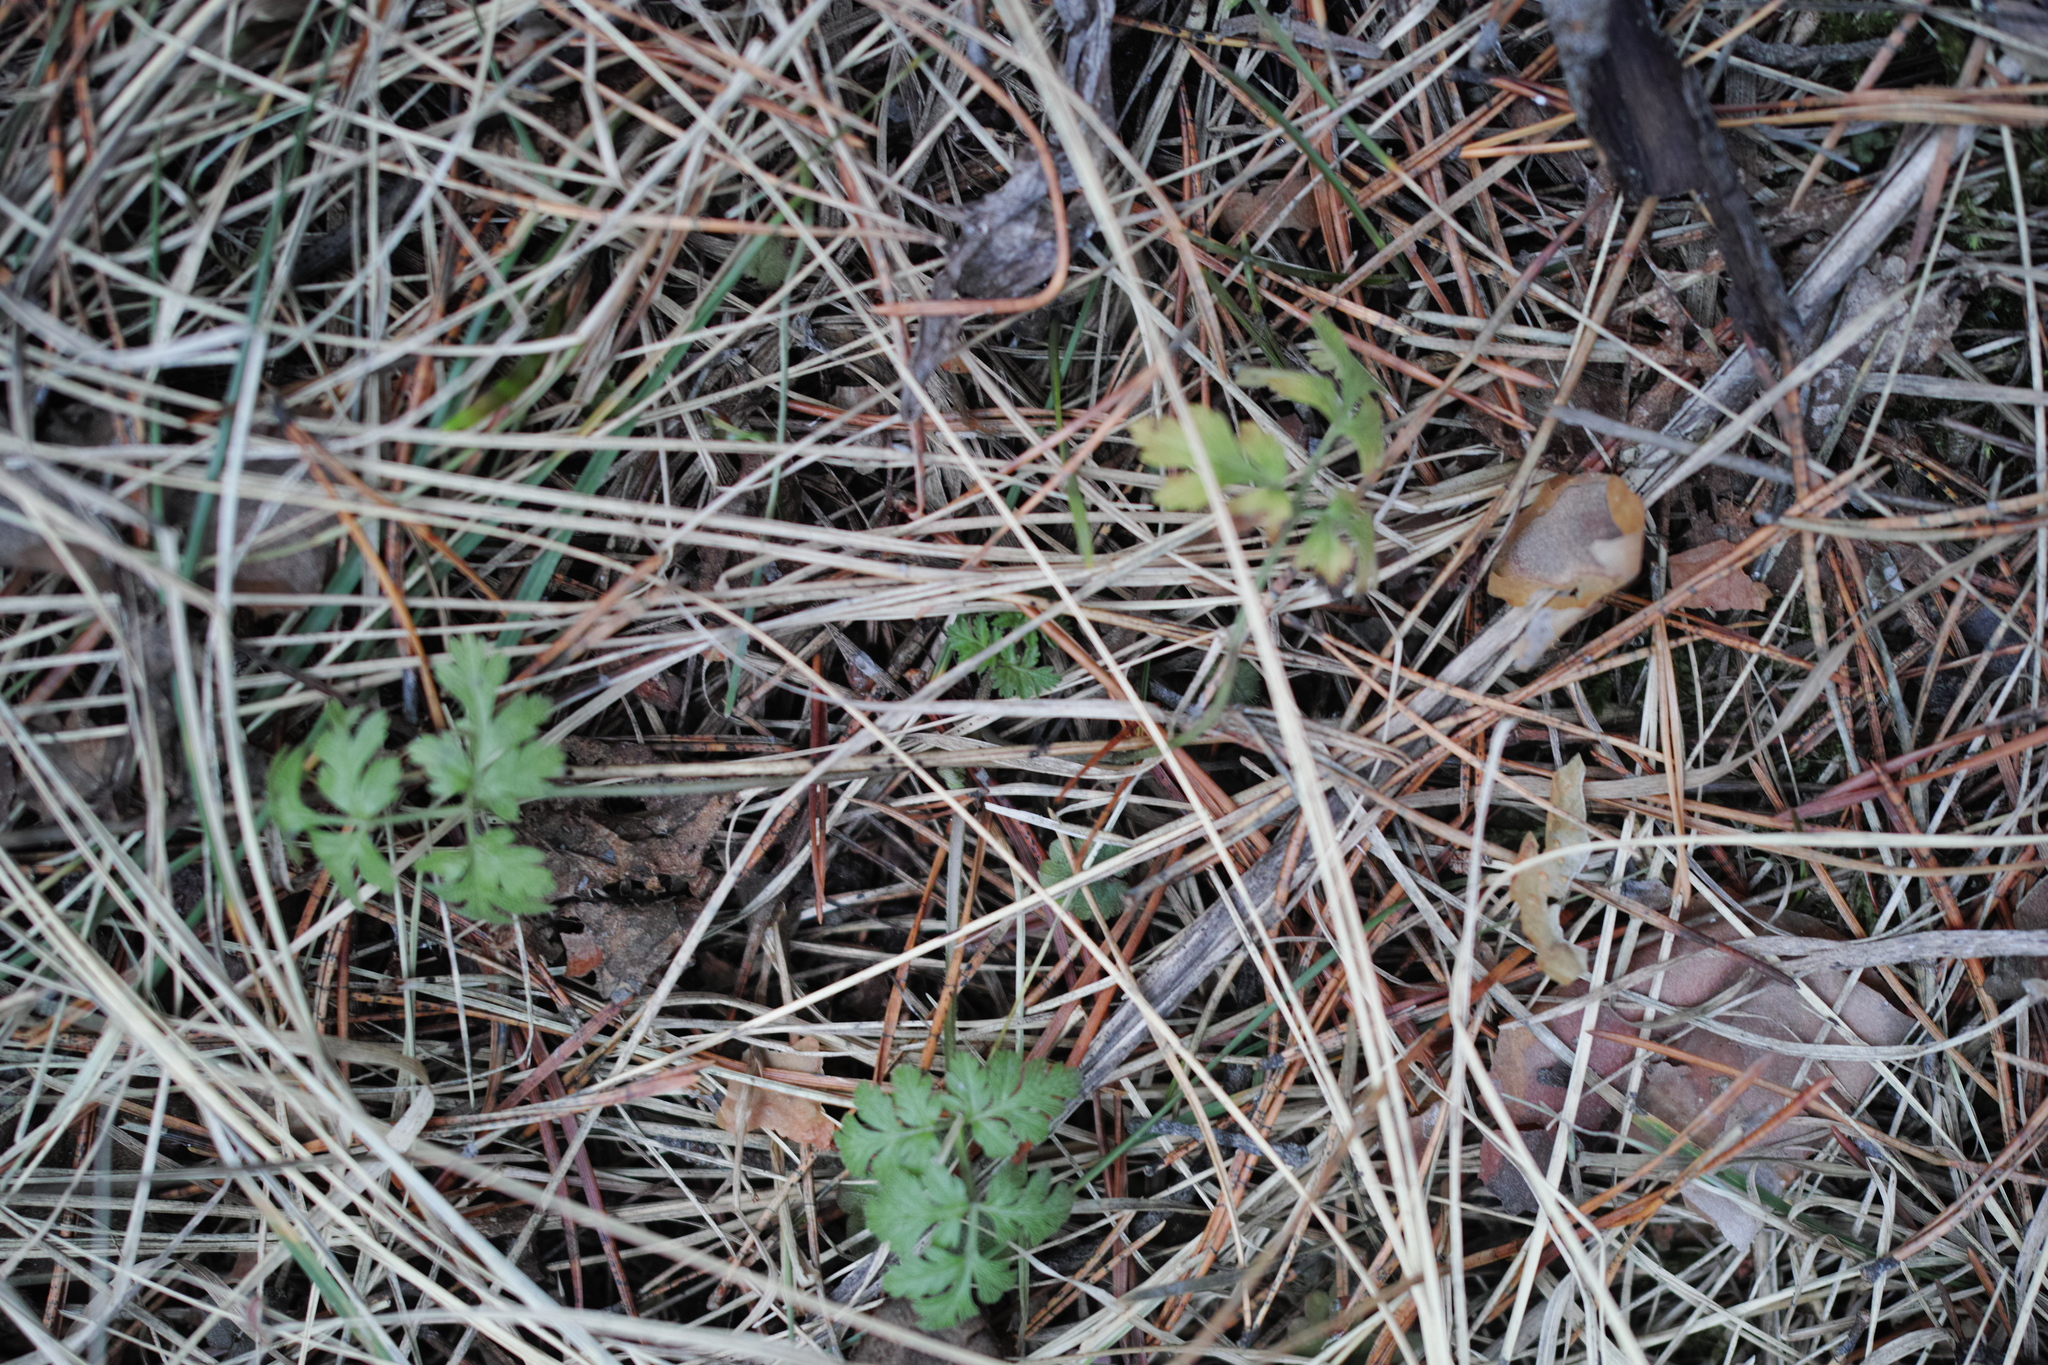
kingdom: Plantae
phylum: Tracheophyta
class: Magnoliopsida
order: Apiales
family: Apiaceae
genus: Anthriscus
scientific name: Anthriscus sylvestris
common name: Cow parsley
